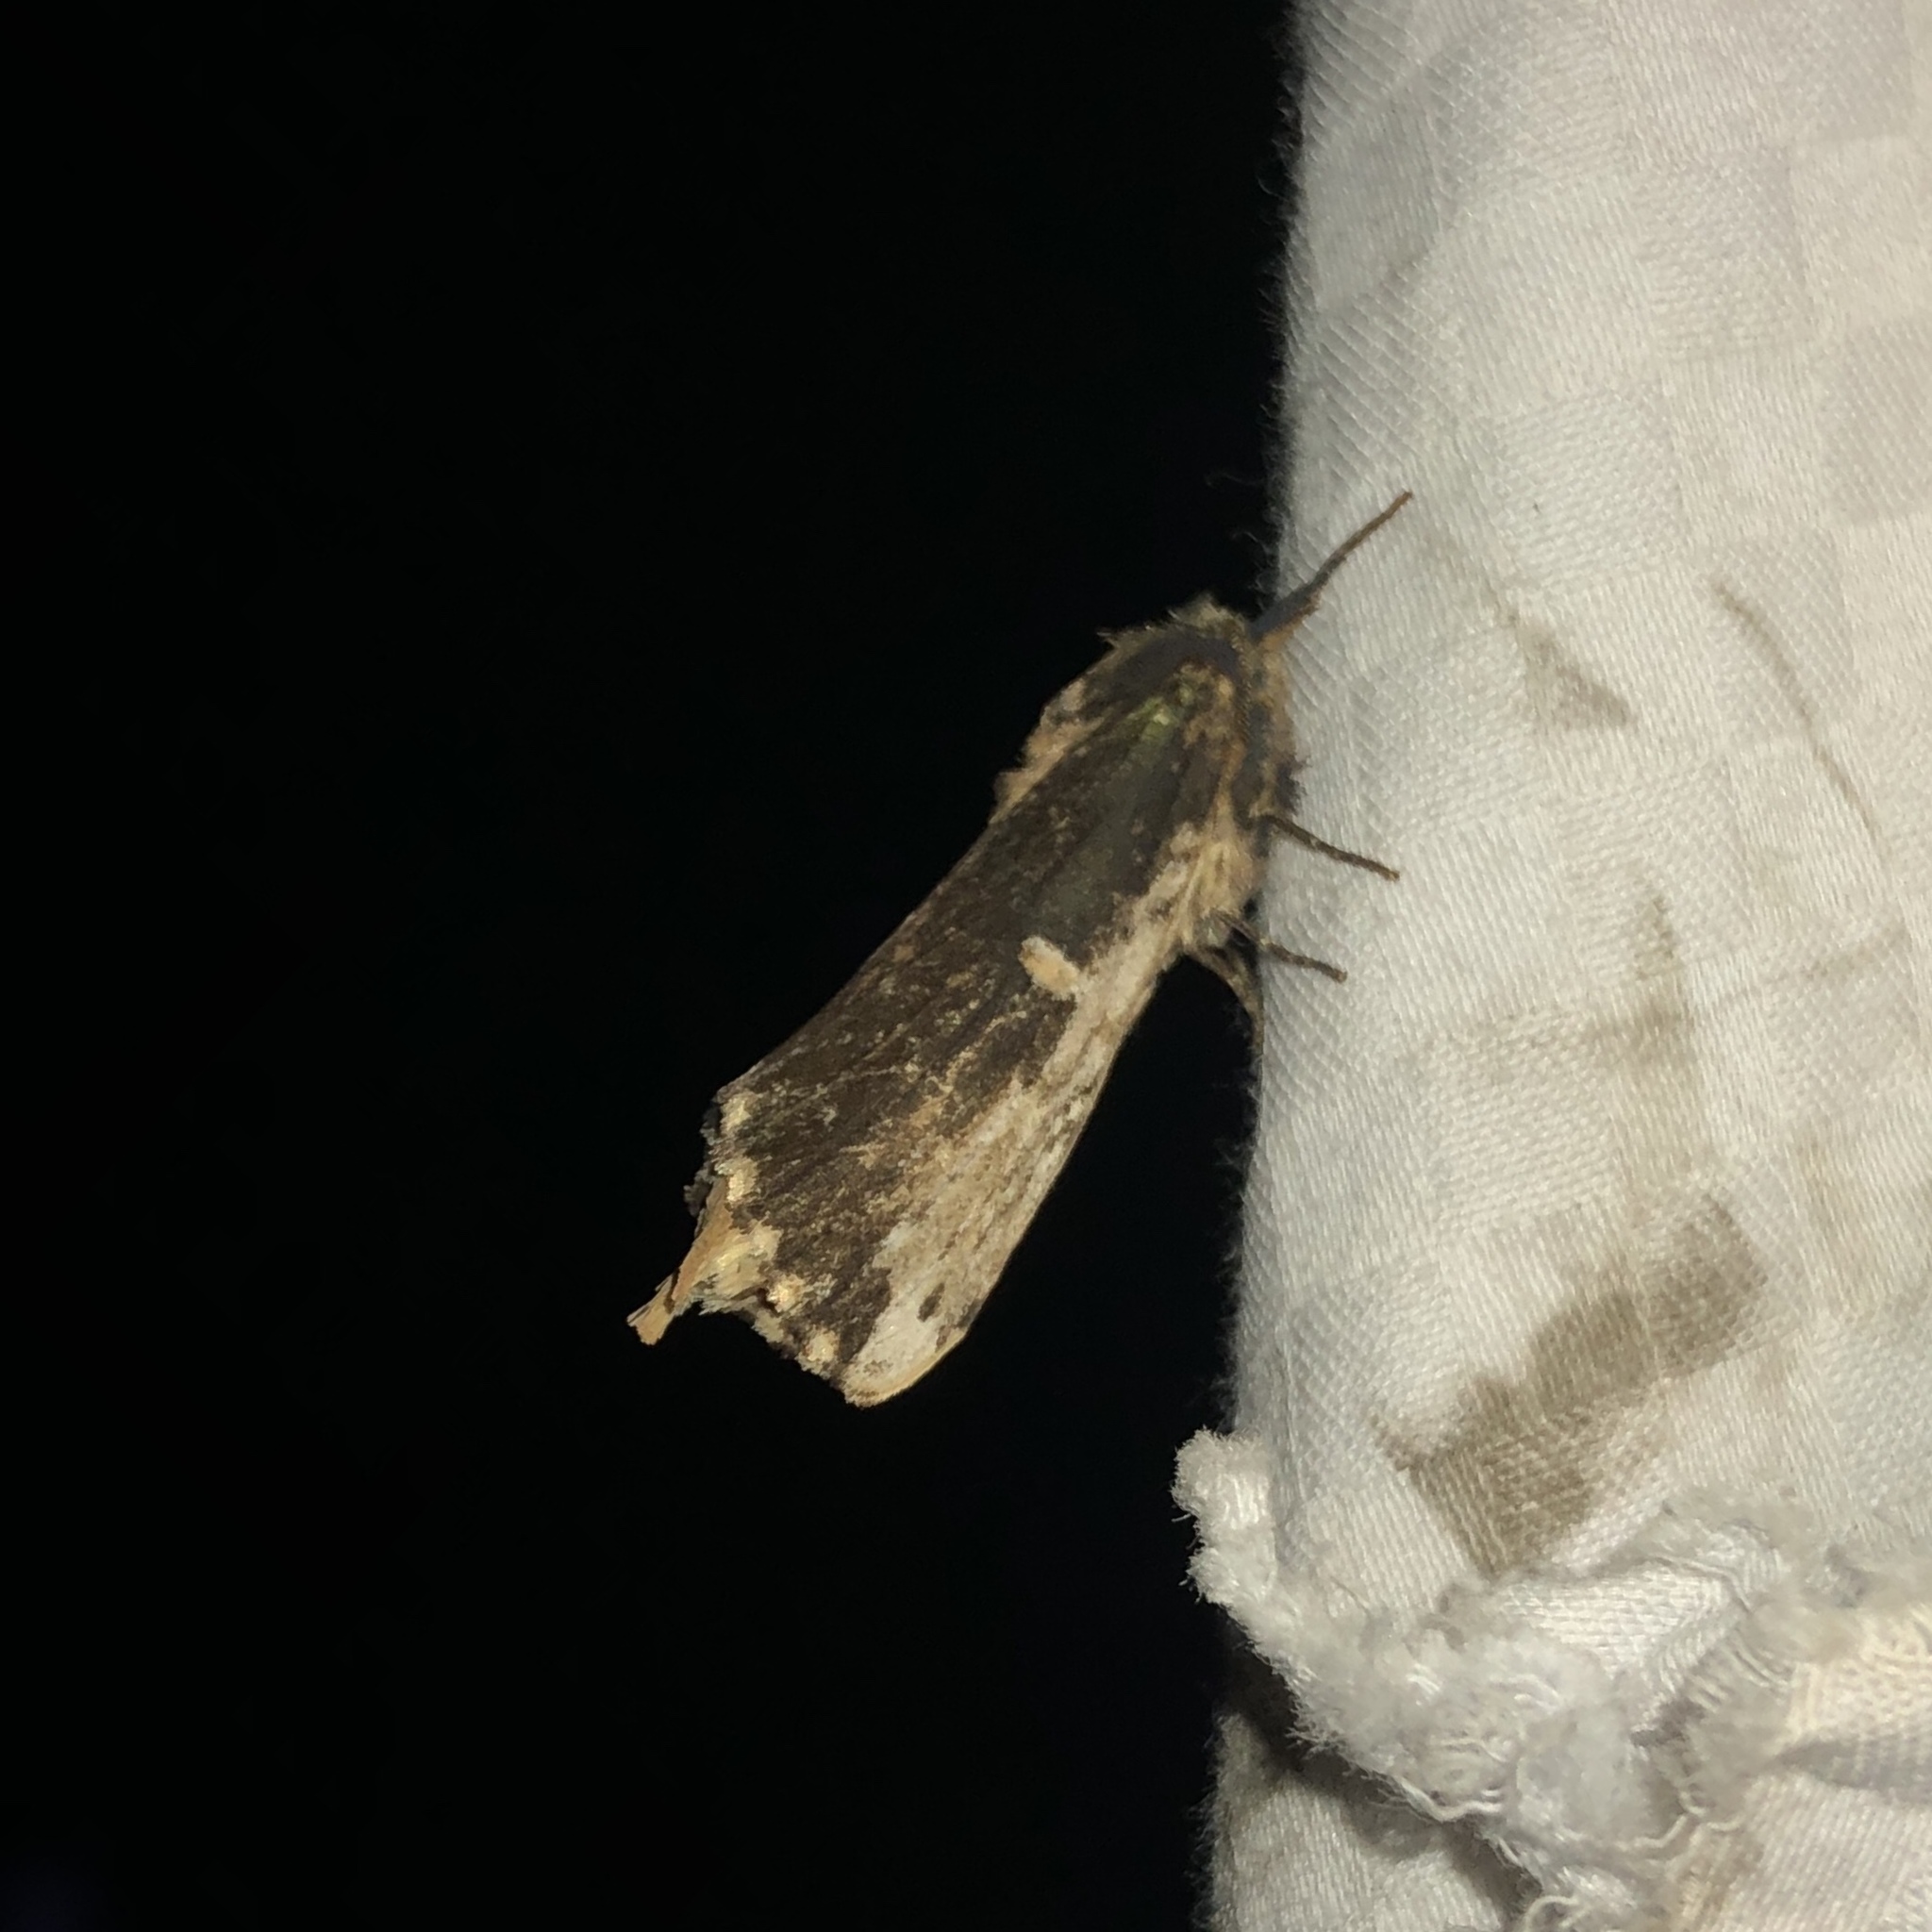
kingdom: Animalia
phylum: Arthropoda
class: Insecta
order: Lepidoptera
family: Notodontidae
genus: Schizura
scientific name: Schizura ipomaeae
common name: Morning-glory prominent
